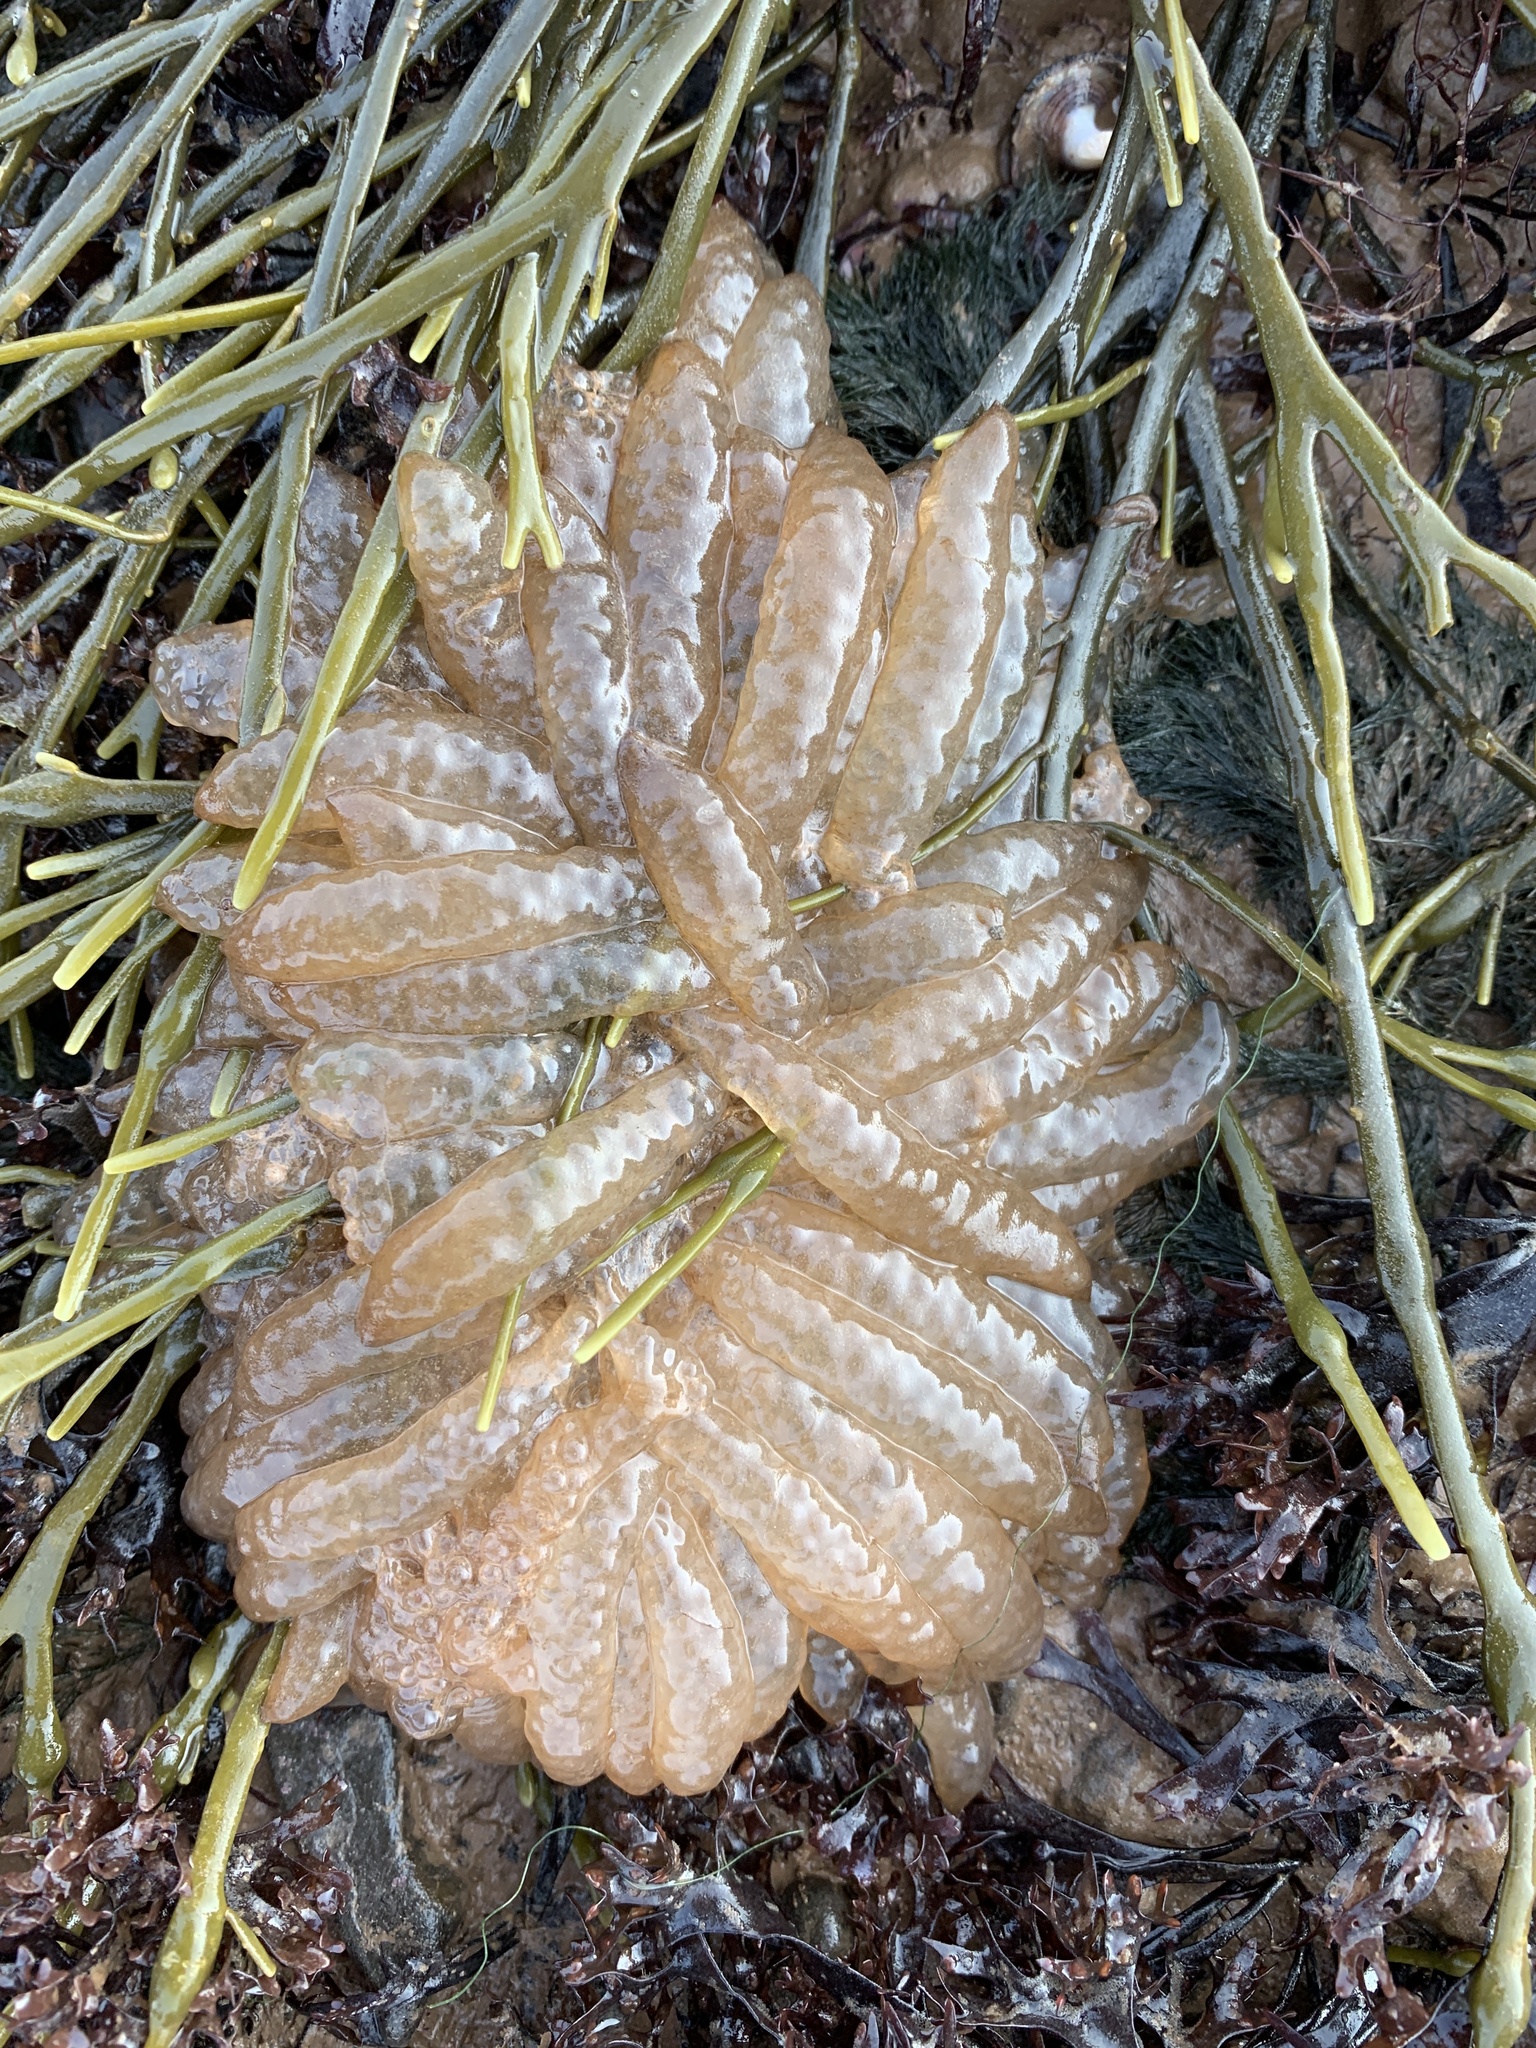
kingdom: Animalia
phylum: Mollusca
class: Cephalopoda
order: Myopsida
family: Loliginidae
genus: Doryteuthis
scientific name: Doryteuthis pealeii
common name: Long-finned inshore squid
